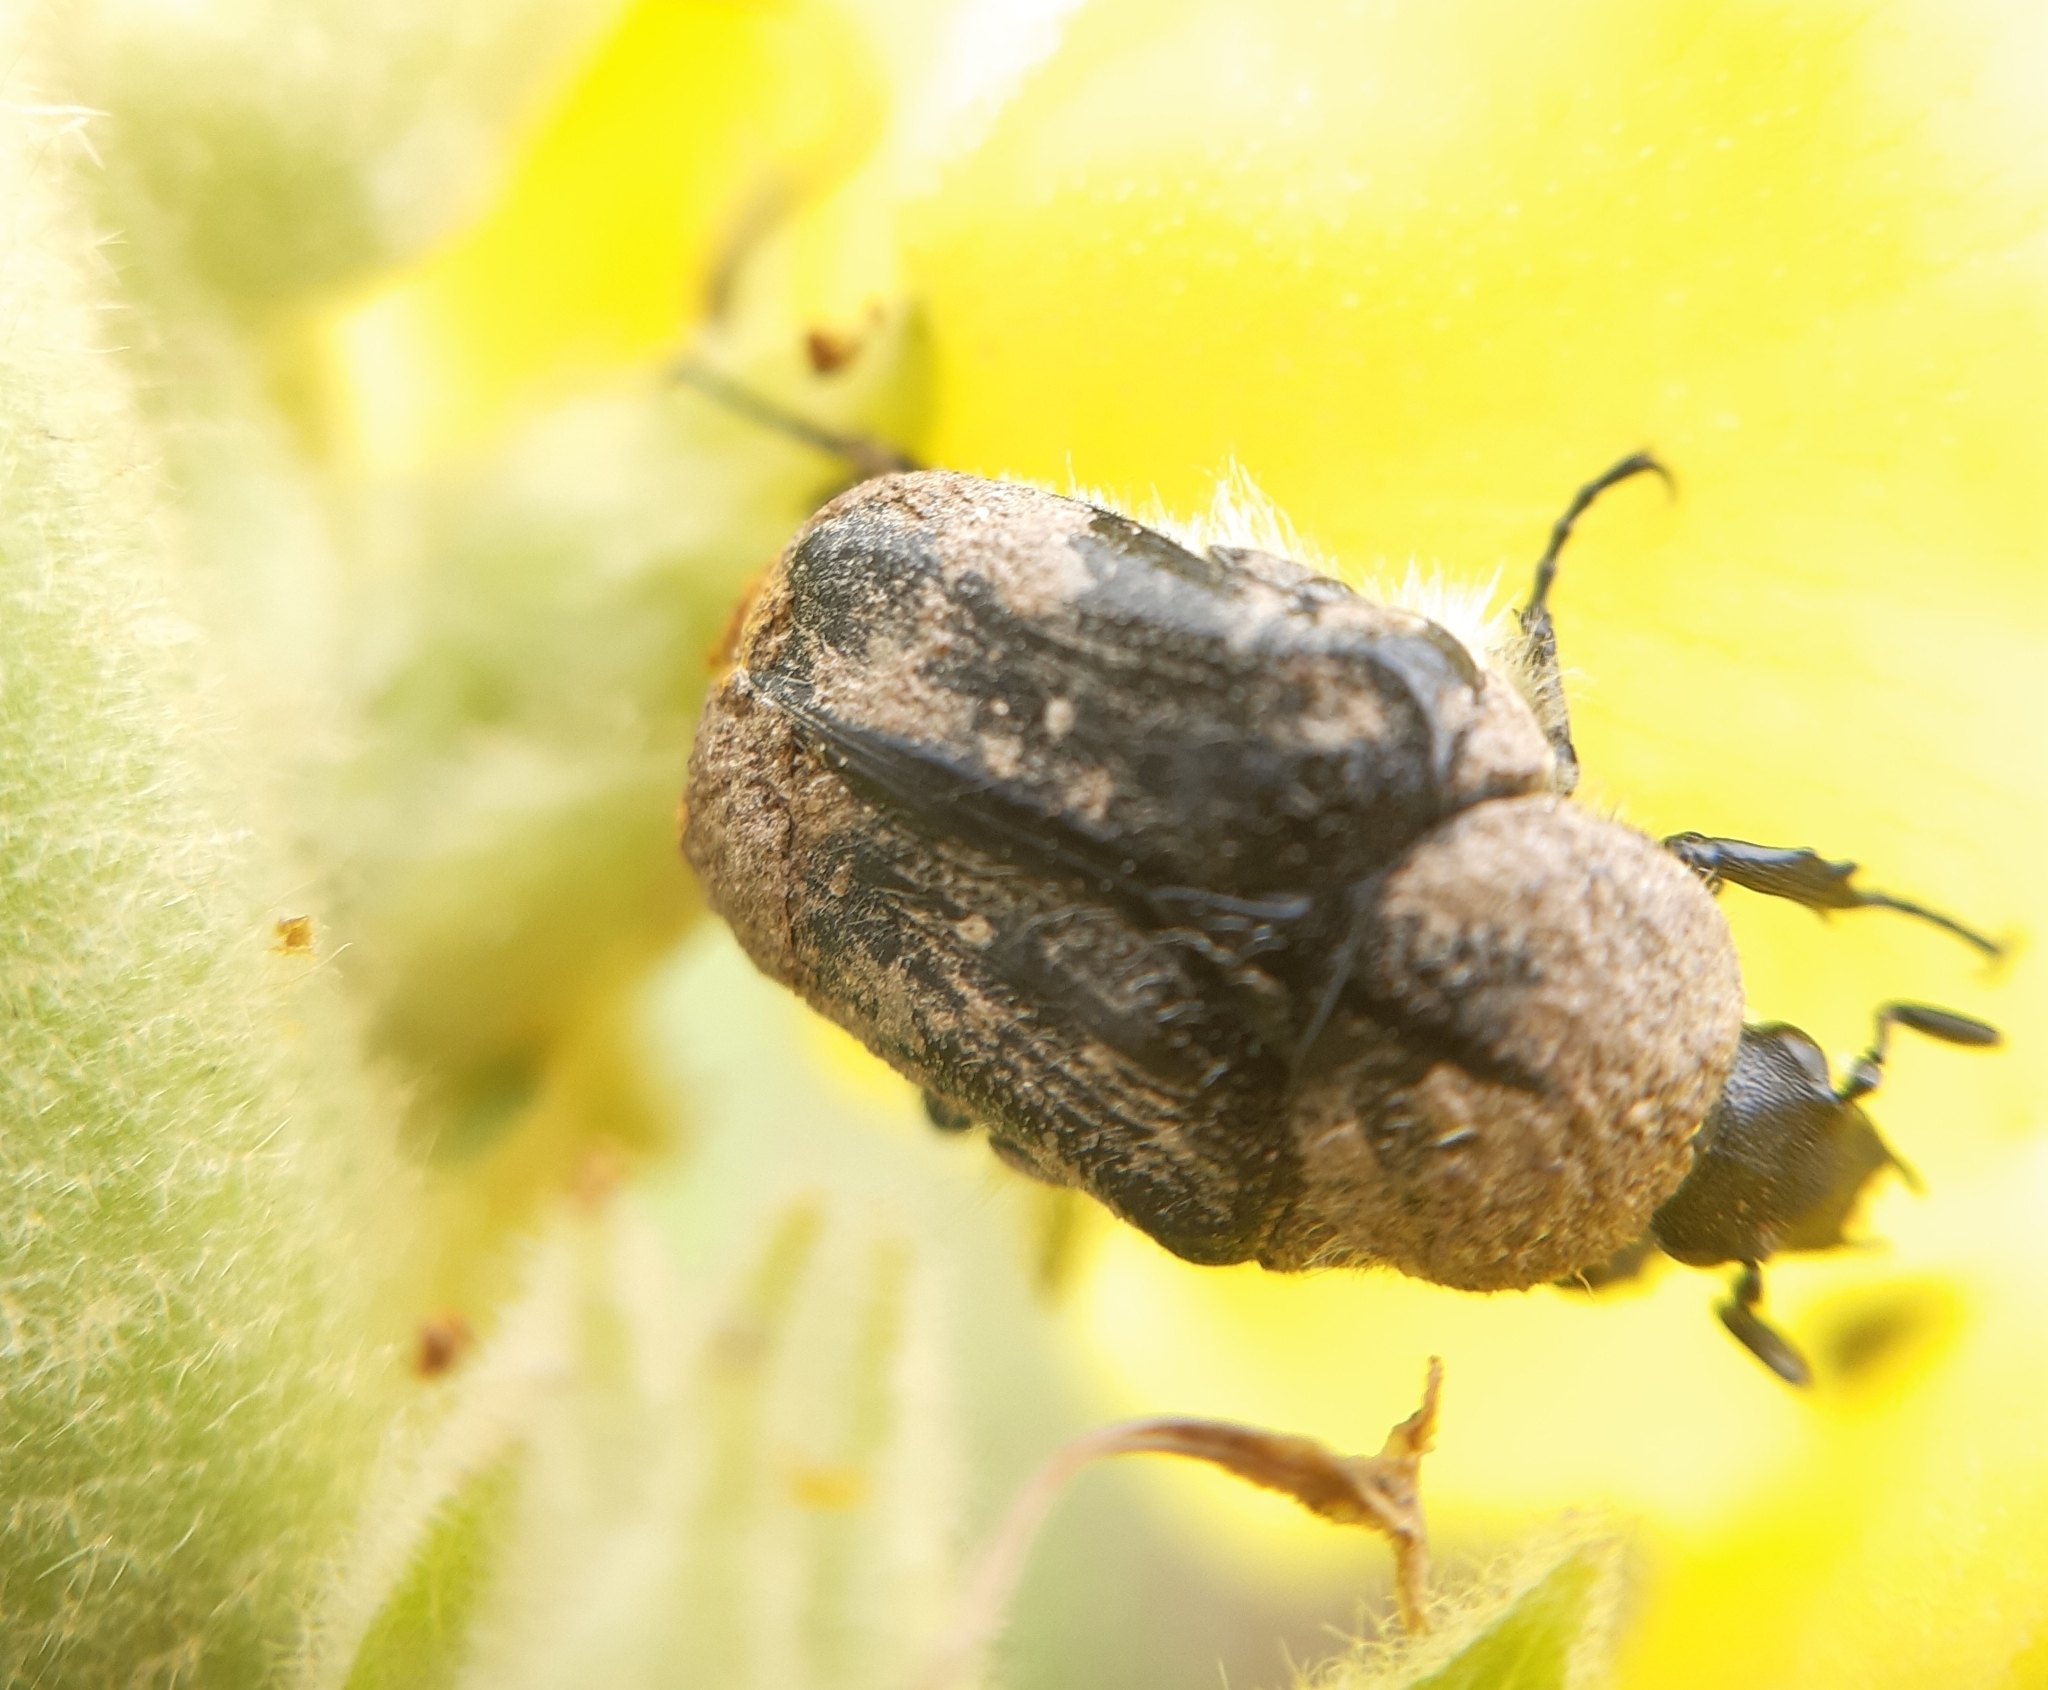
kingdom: Animalia
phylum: Arthropoda
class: Insecta
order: Coleoptera
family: Scarabaeidae
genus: Tropinota
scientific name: Tropinota hirta
